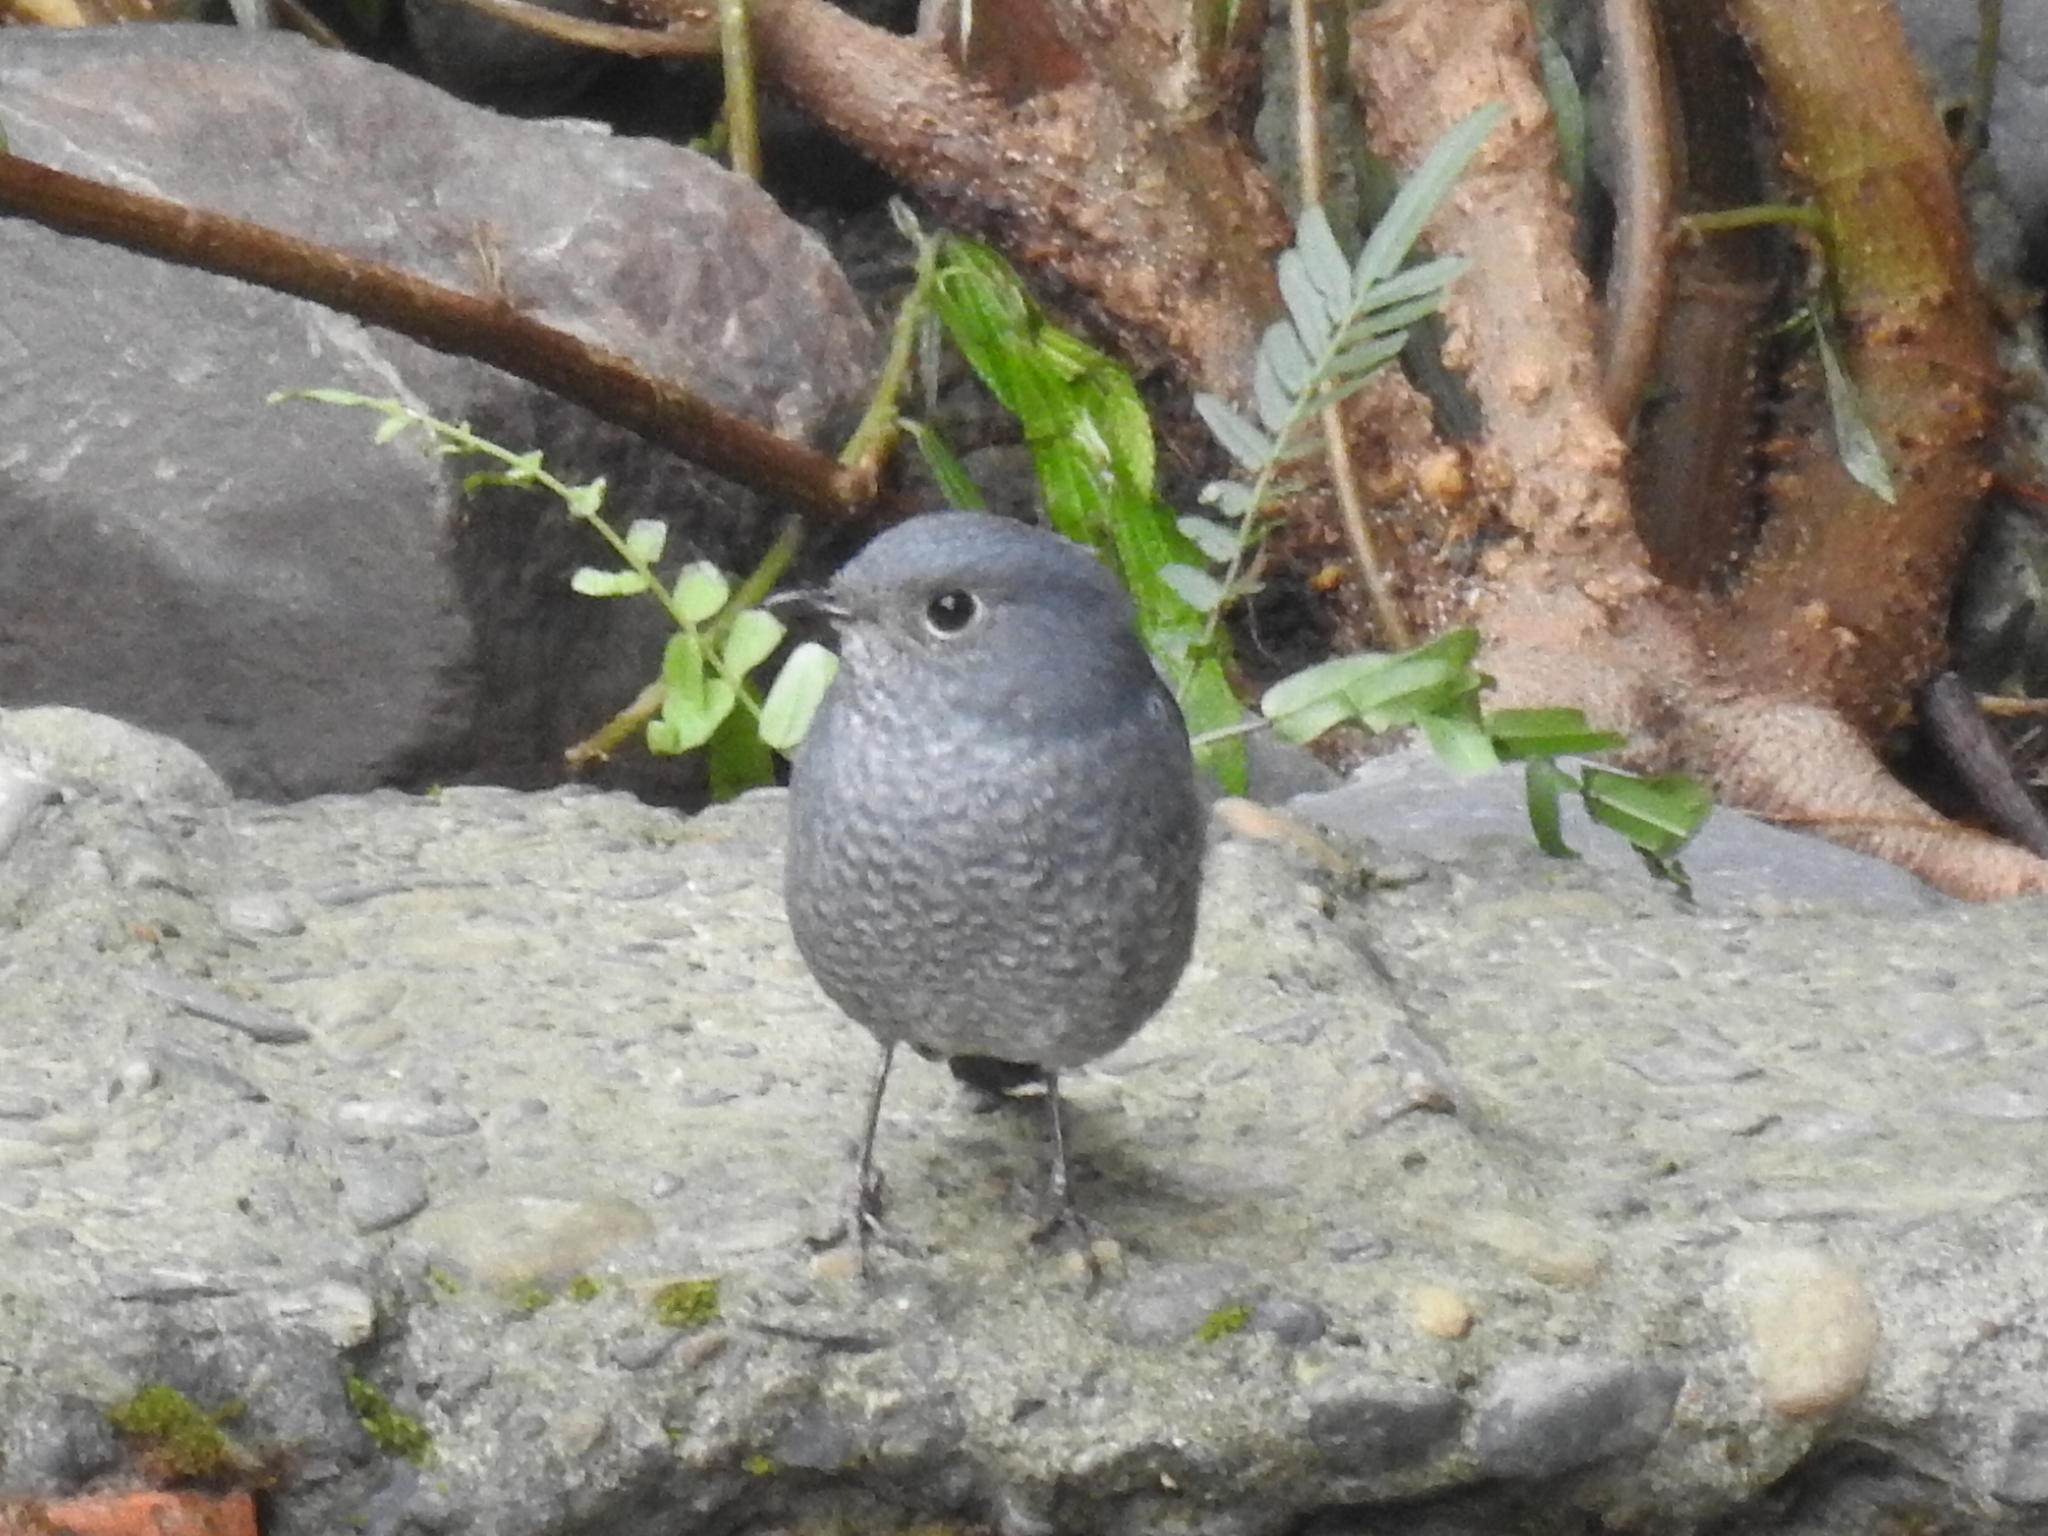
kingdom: Animalia
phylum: Chordata
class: Aves
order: Passeriformes
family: Muscicapidae
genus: Phoenicurus
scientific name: Phoenicurus fuliginosus
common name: Plumbeous water redstart
